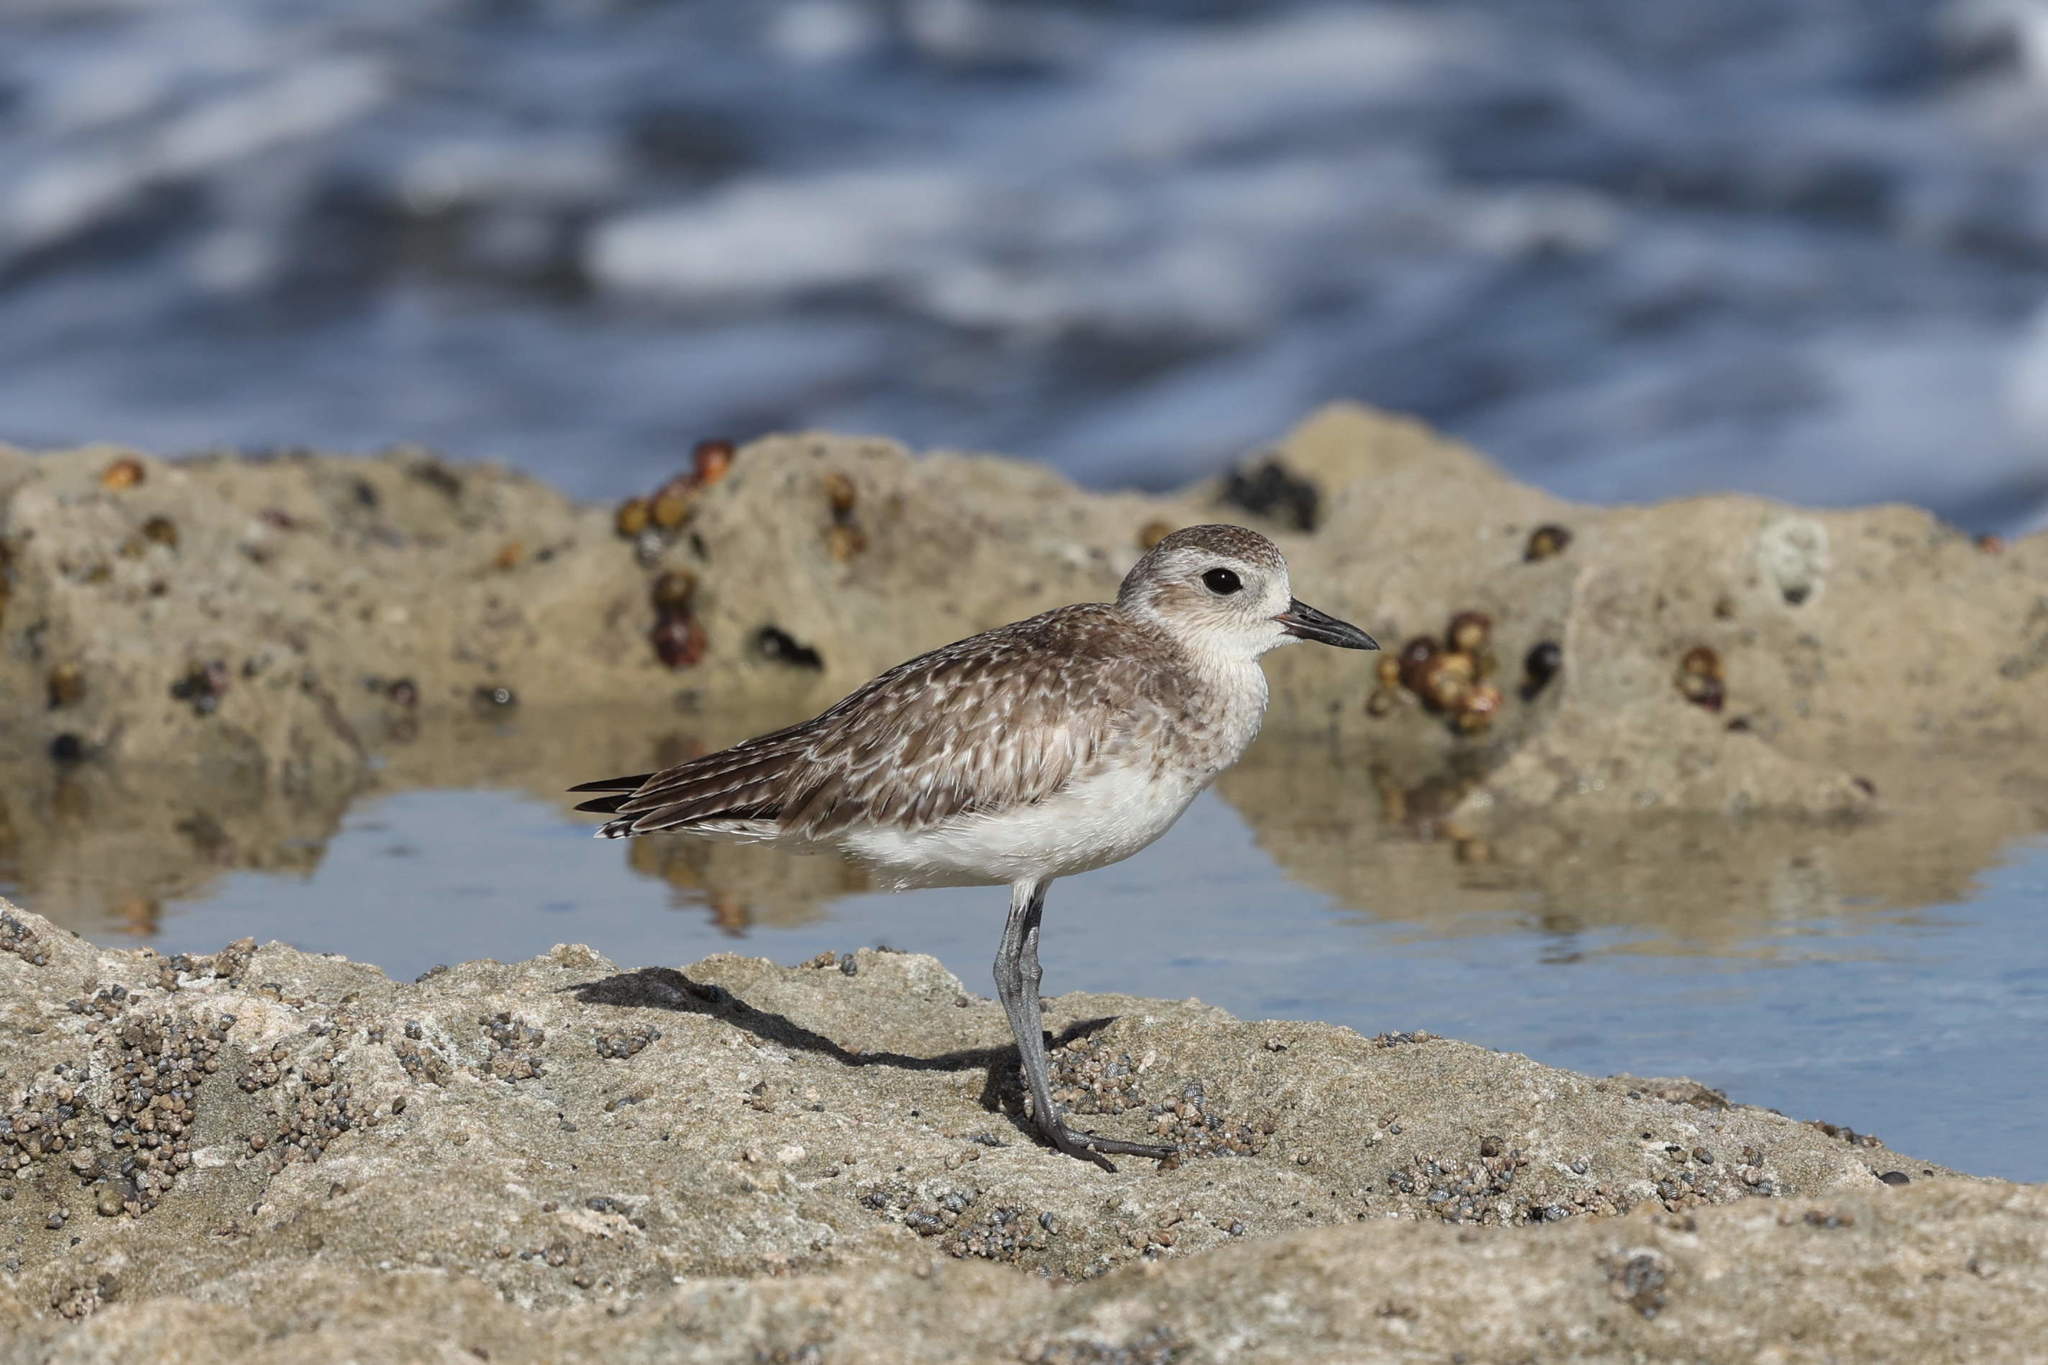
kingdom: Animalia
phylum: Chordata
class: Aves
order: Charadriiformes
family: Charadriidae
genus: Pluvialis
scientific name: Pluvialis squatarola
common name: Grey plover
